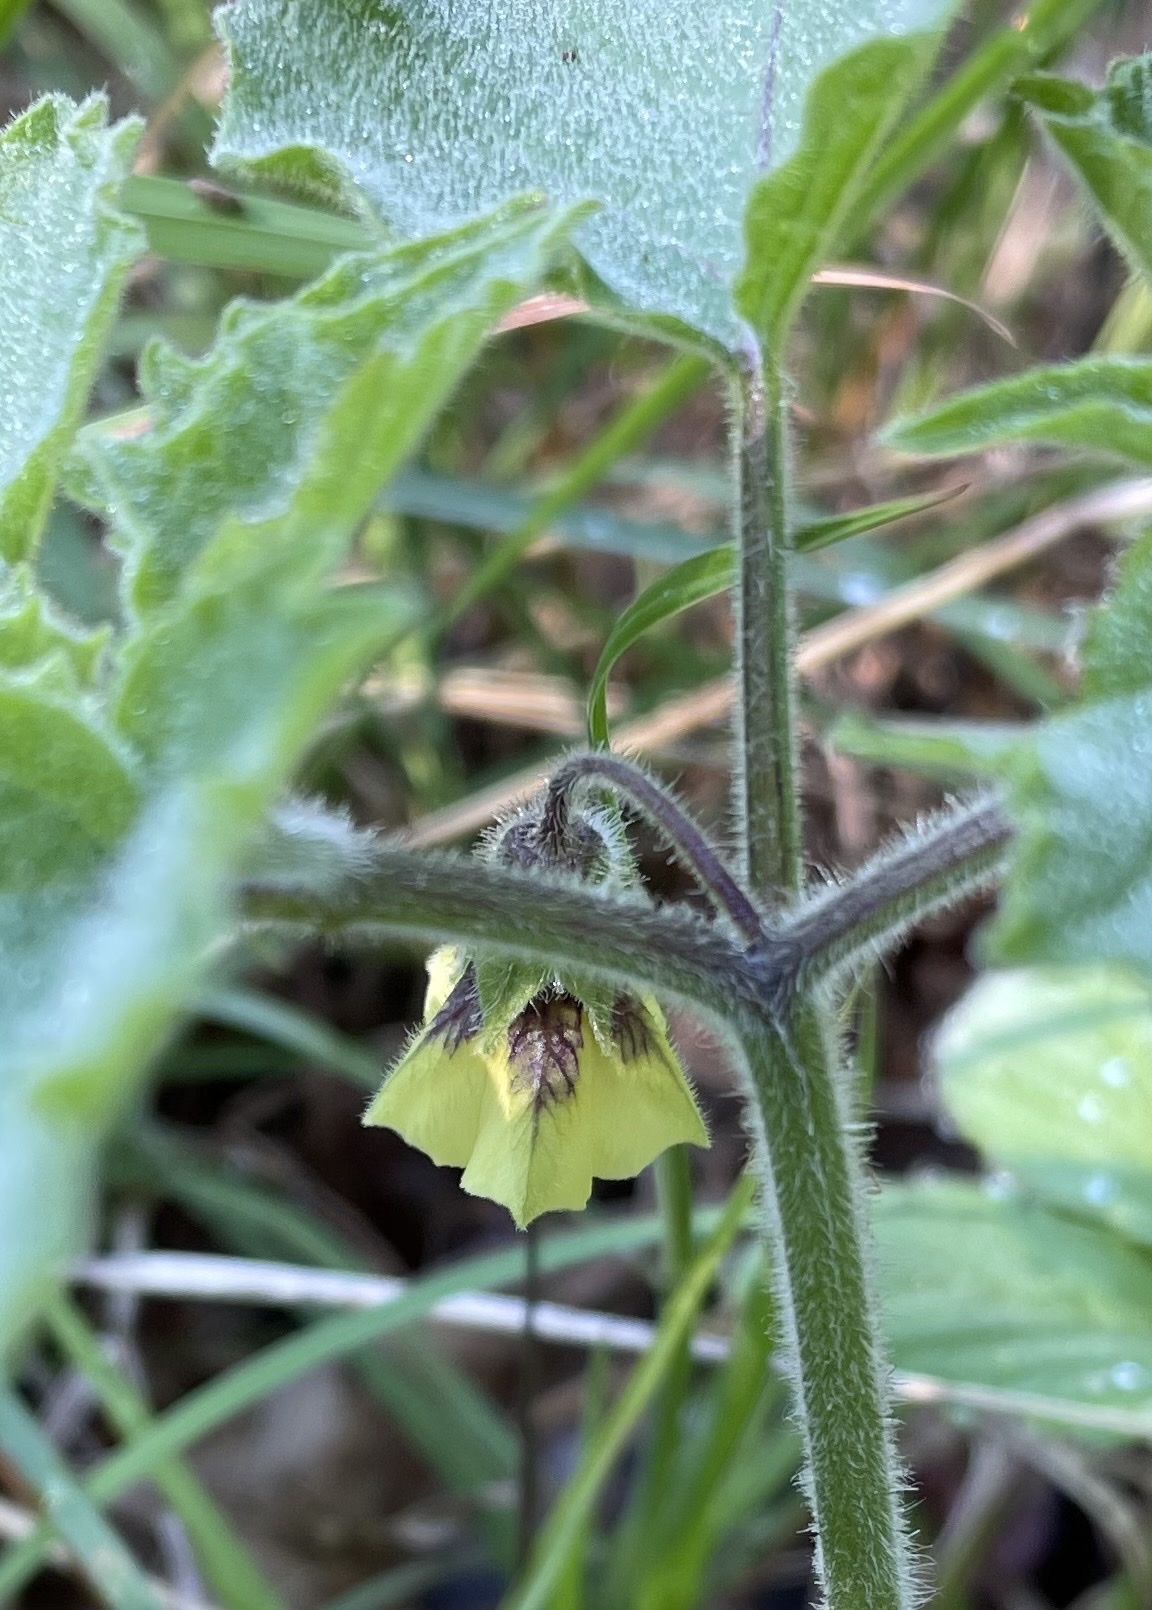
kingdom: Plantae
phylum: Tracheophyta
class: Magnoliopsida
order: Solanales
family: Solanaceae
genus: Physalis
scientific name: Physalis heterophylla
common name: Clammy ground-cherry
